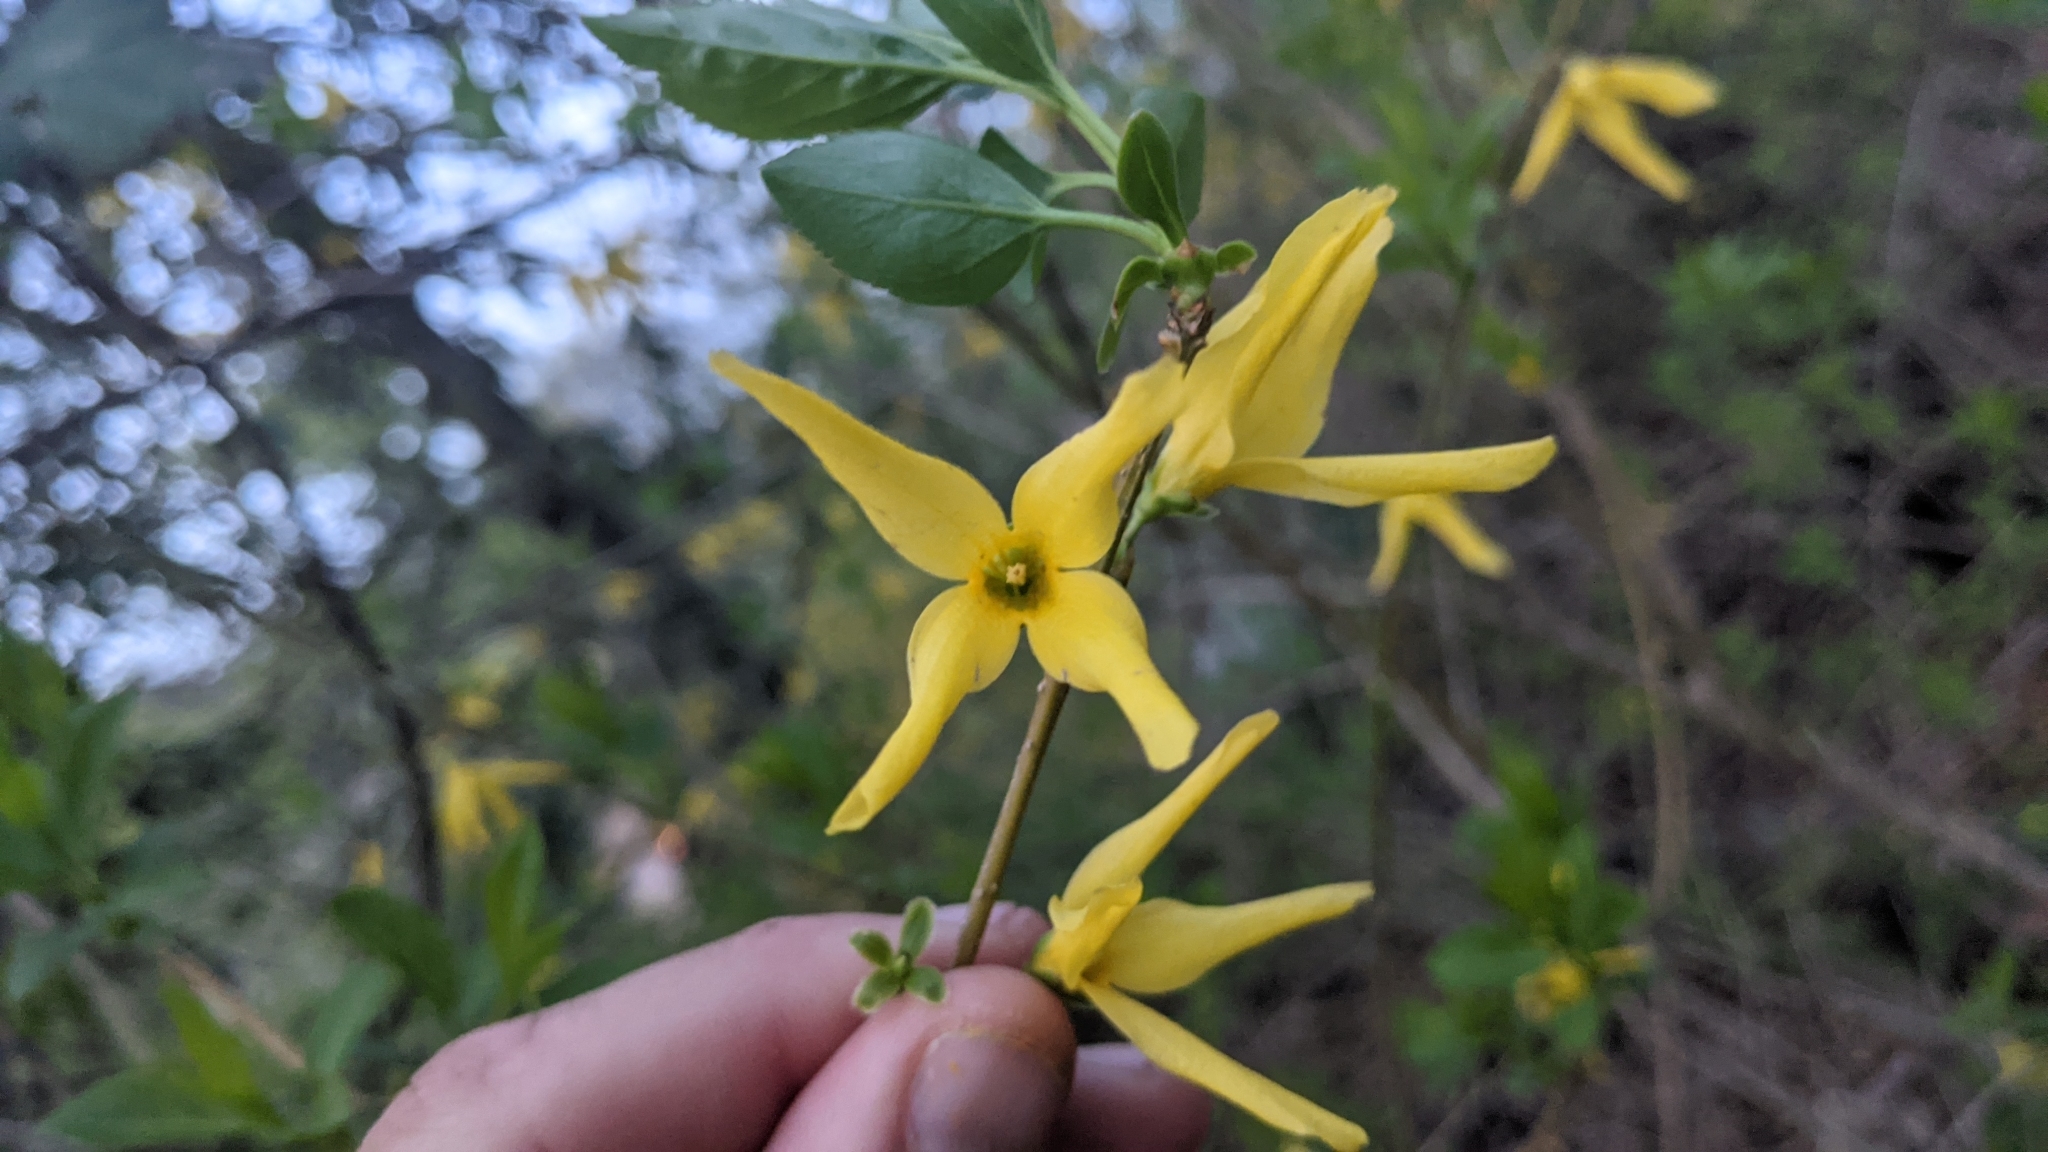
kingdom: Plantae
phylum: Tracheophyta
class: Magnoliopsida
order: Lamiales
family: Oleaceae
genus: Forsythia
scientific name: Forsythia intermedia
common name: Forsythia
